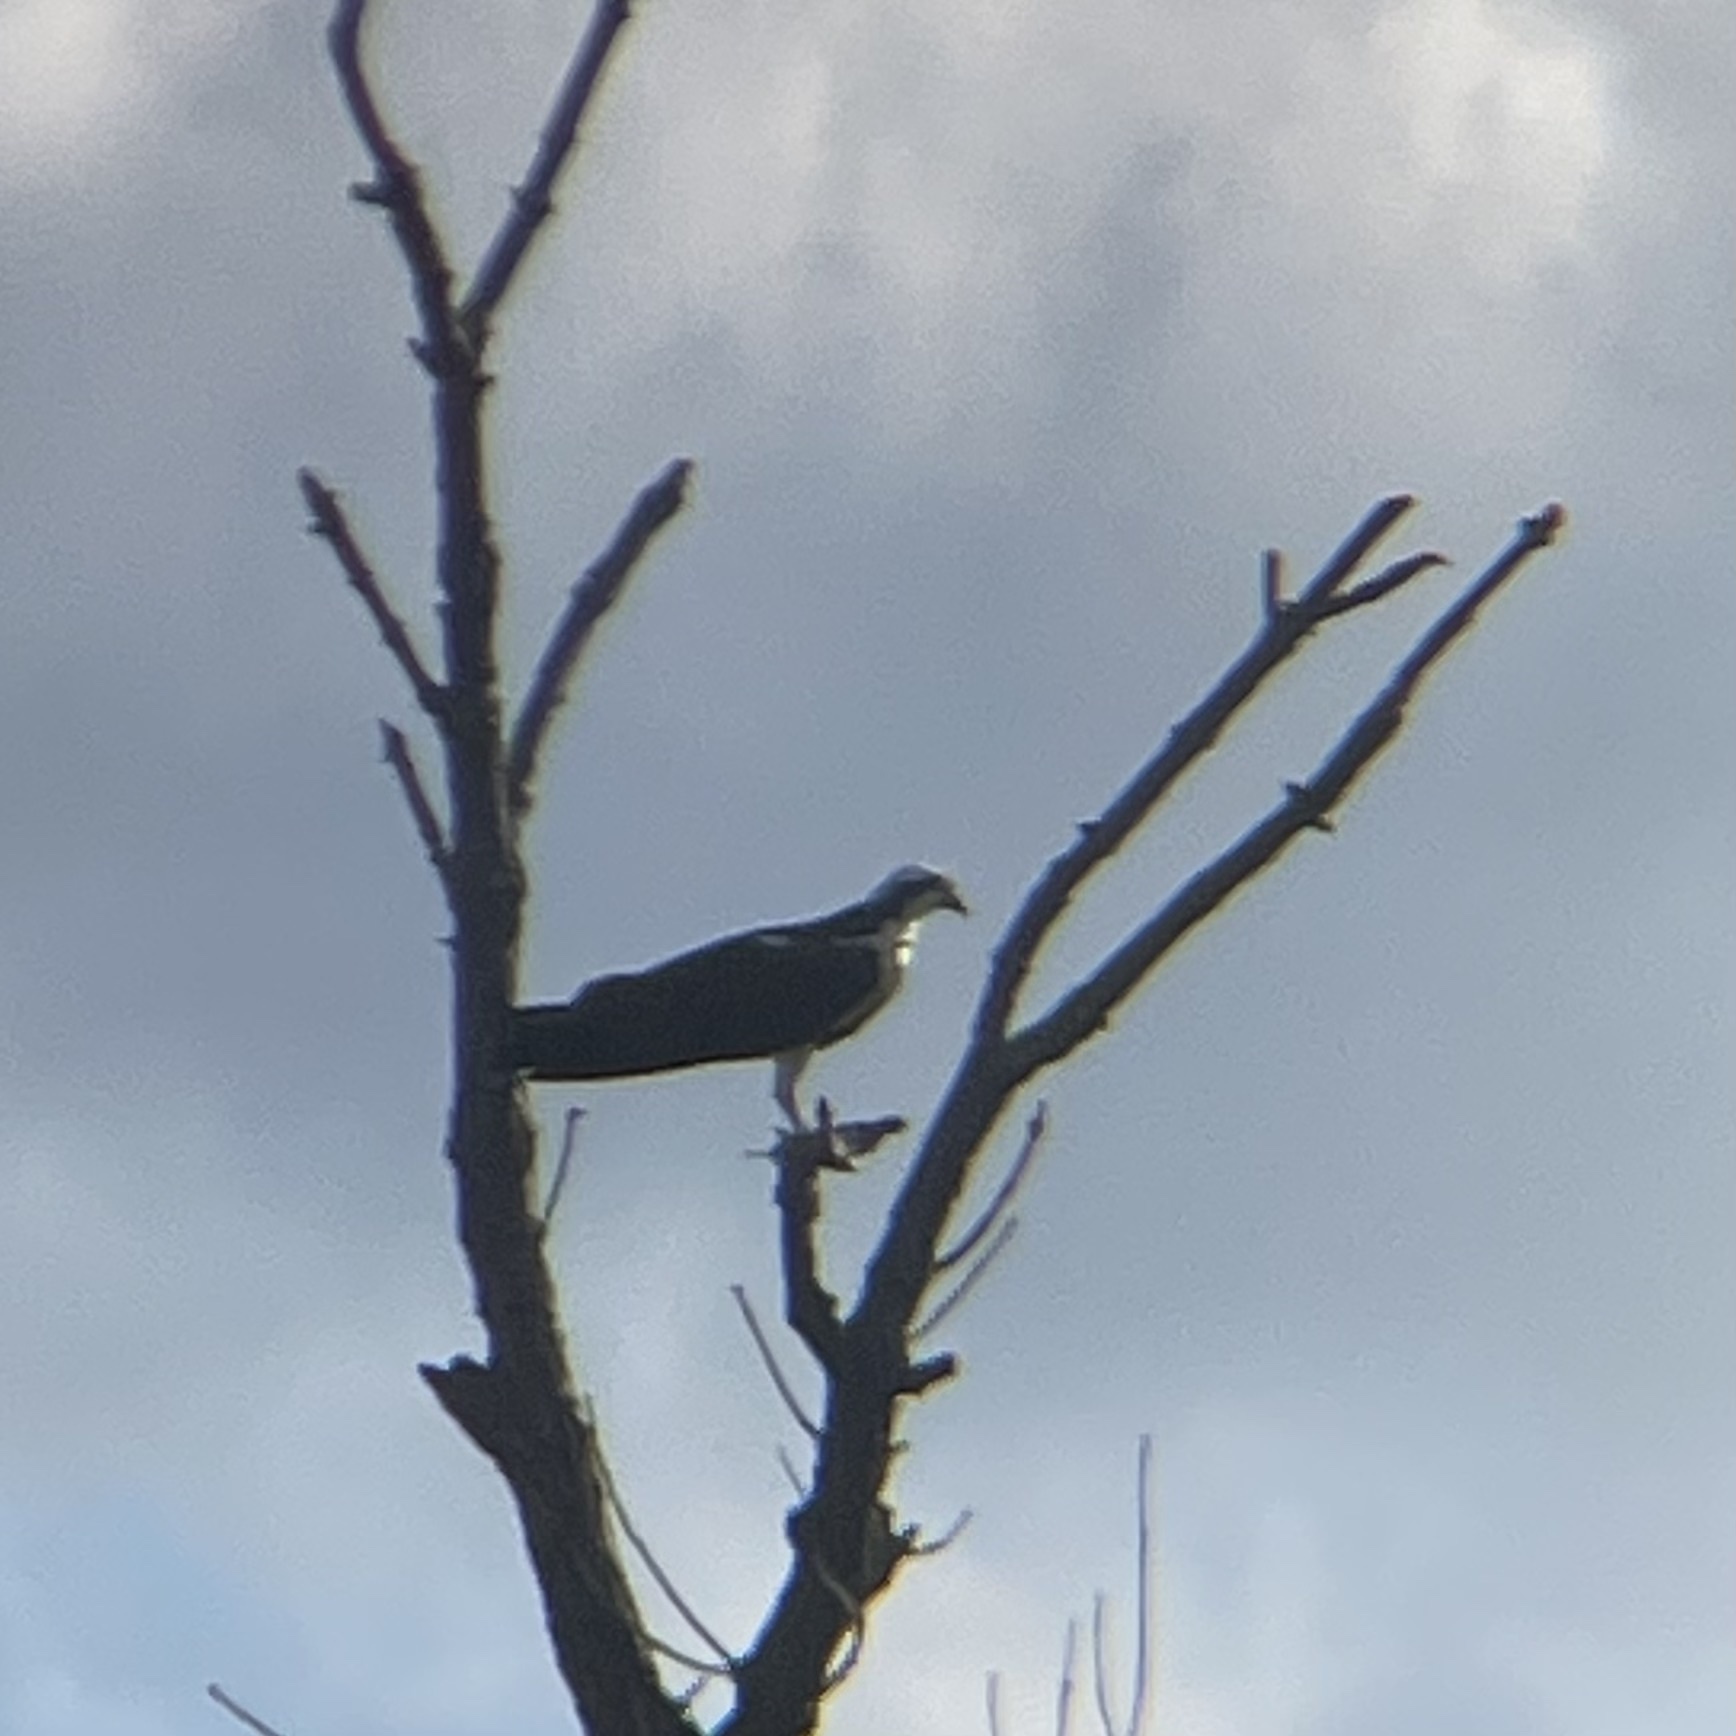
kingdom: Animalia
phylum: Chordata
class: Aves
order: Accipitriformes
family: Pandionidae
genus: Pandion
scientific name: Pandion haliaetus
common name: Osprey
